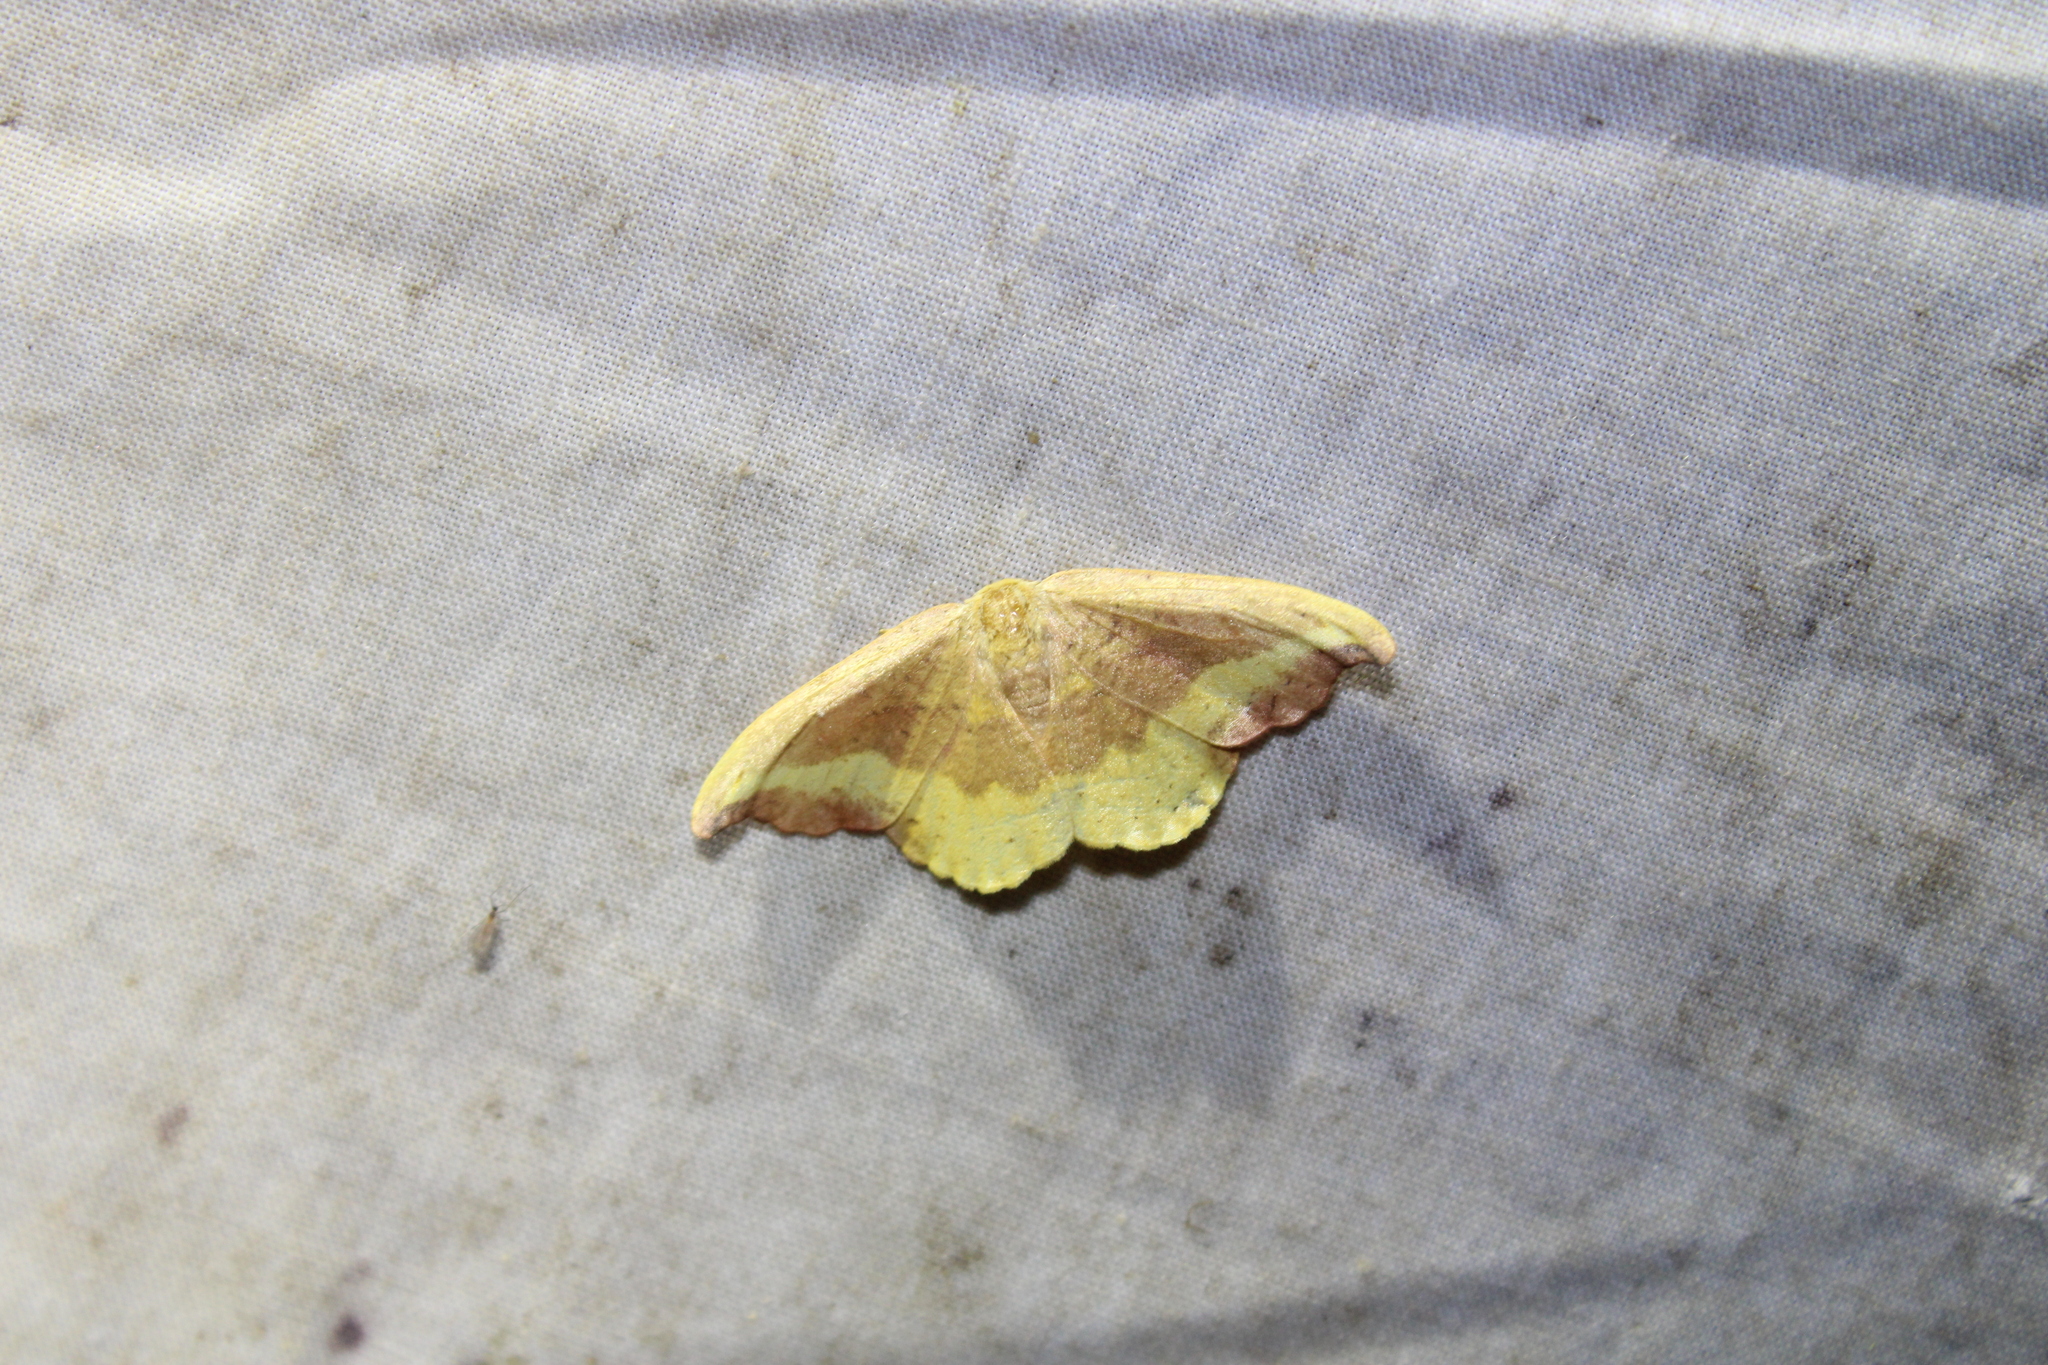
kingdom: Animalia
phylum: Arthropoda
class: Insecta
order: Lepidoptera
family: Drepanidae
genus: Oreta
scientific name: Oreta rosea
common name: Rose hooktip
